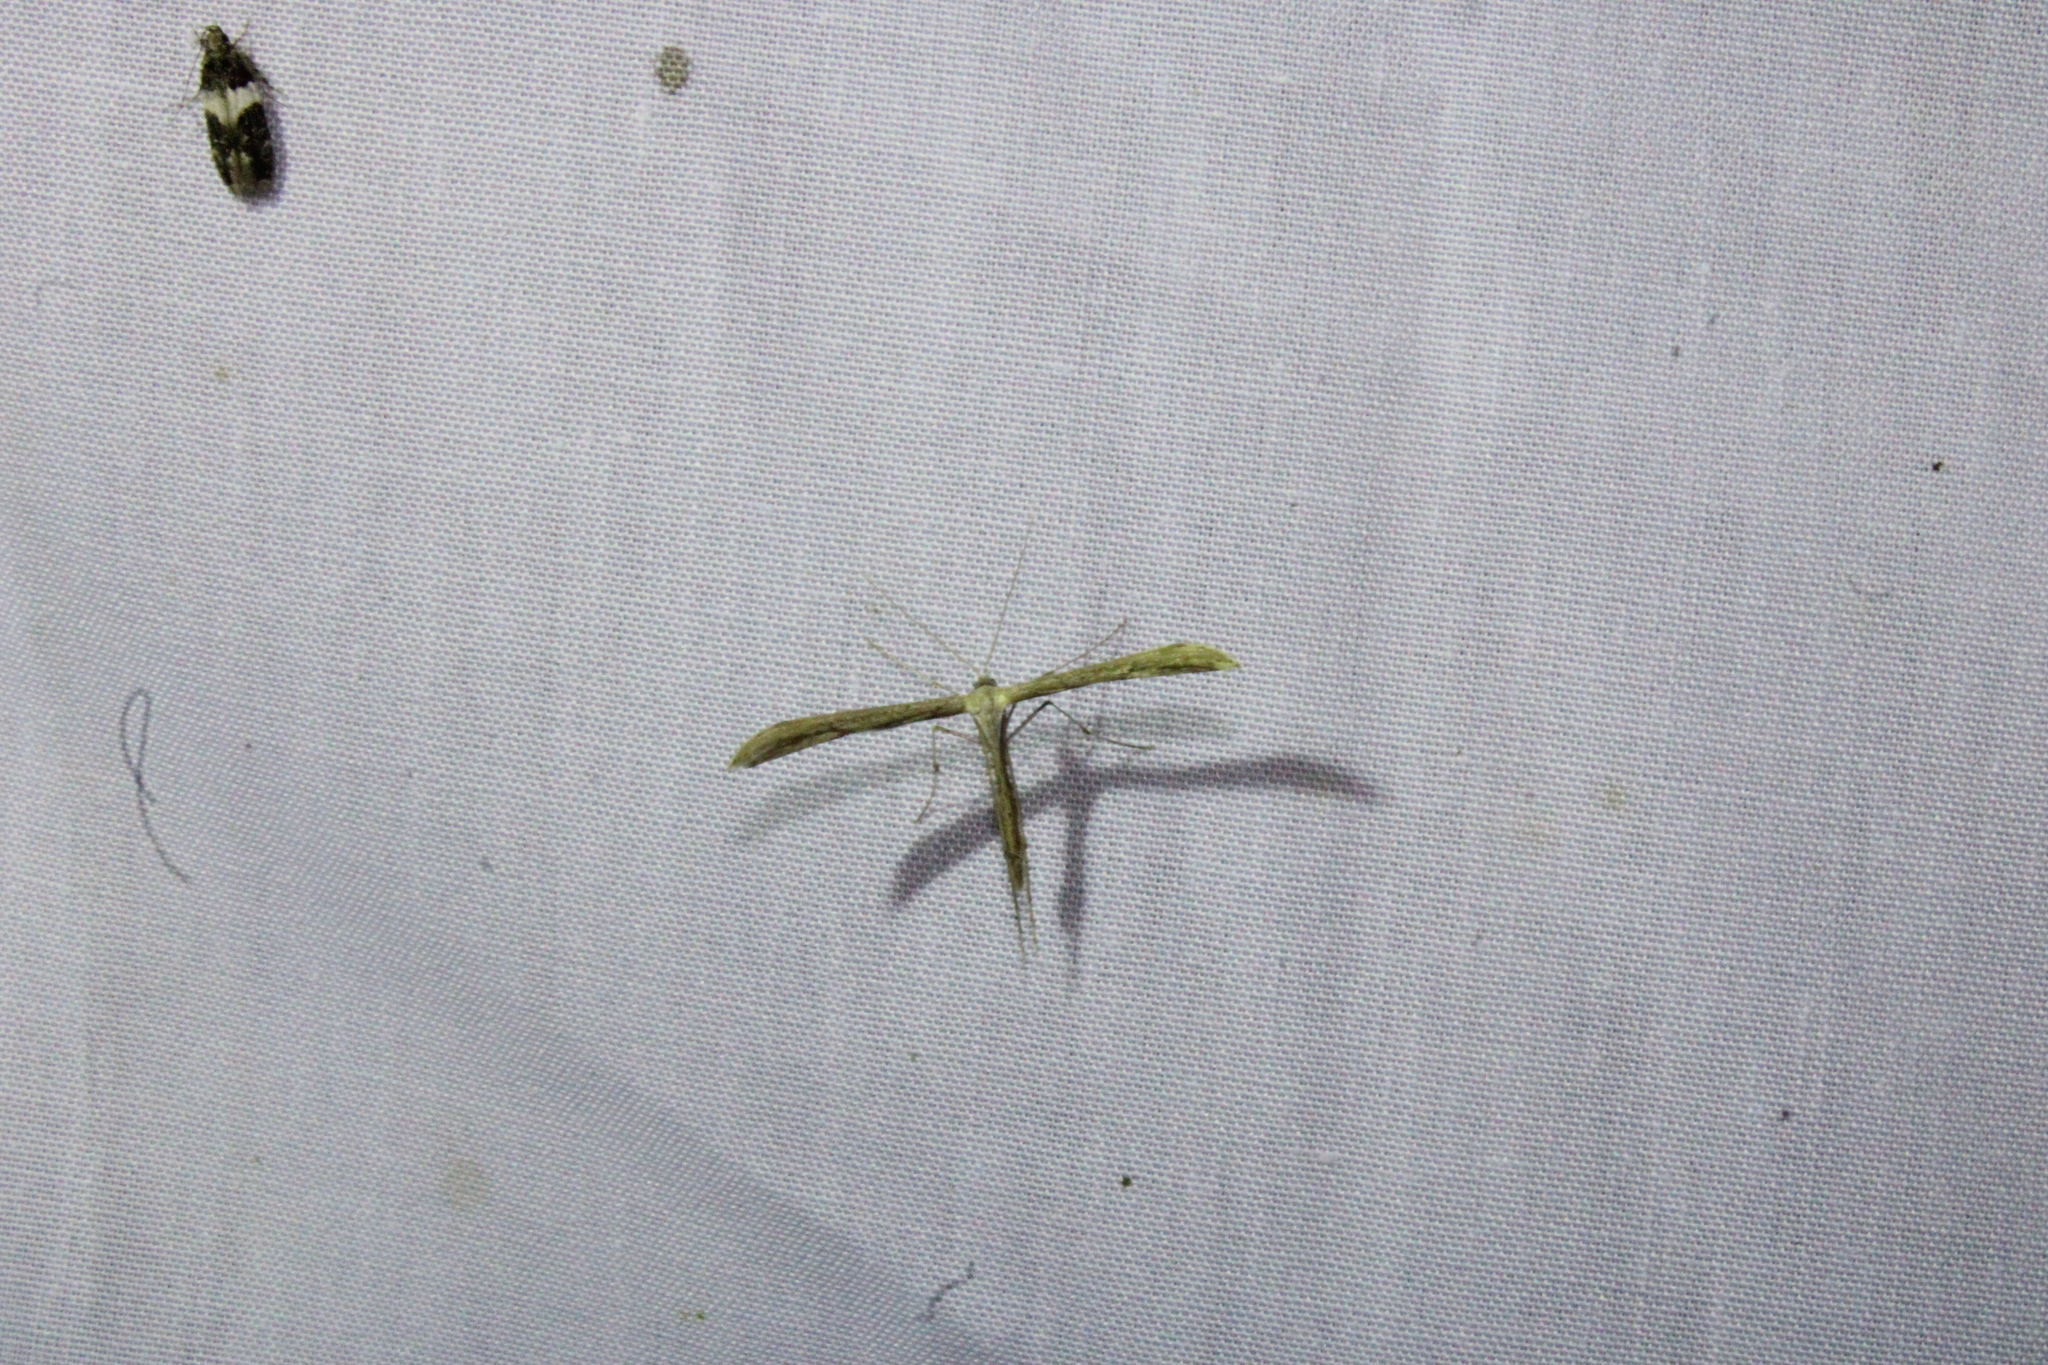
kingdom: Animalia
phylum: Arthropoda
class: Insecta
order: Lepidoptera
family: Pterophoridae
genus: Emmelina
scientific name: Emmelina monodactyla
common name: Common plume
